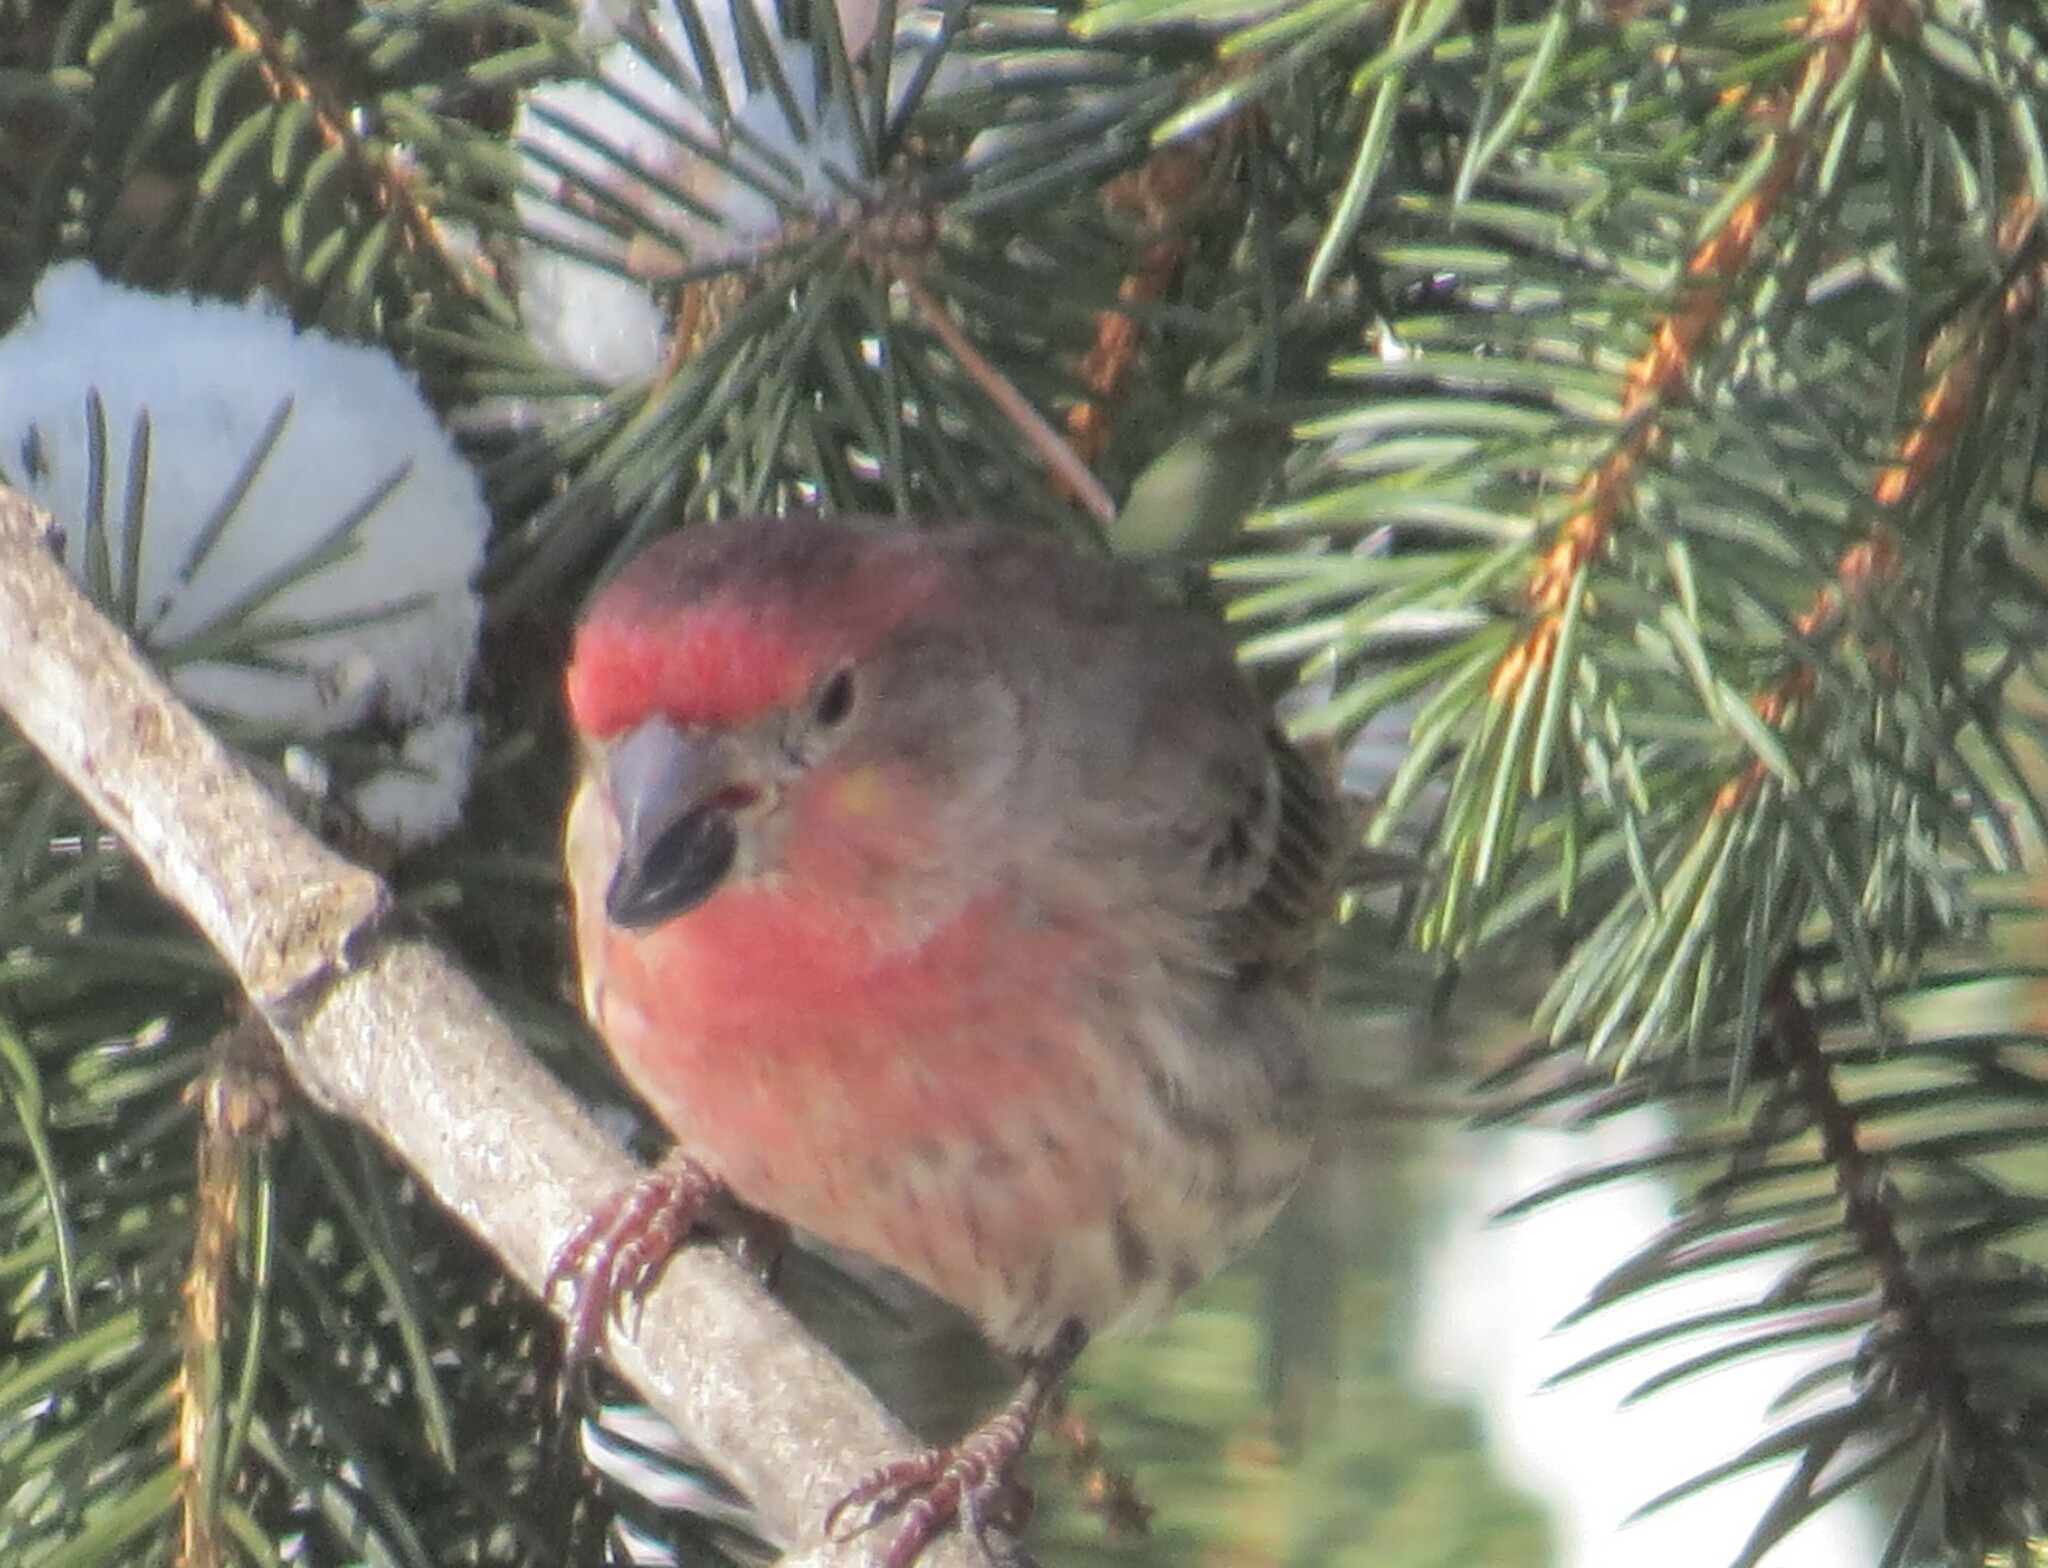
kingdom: Animalia
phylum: Chordata
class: Aves
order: Passeriformes
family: Fringillidae
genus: Haemorhous
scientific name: Haemorhous mexicanus
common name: House finch
